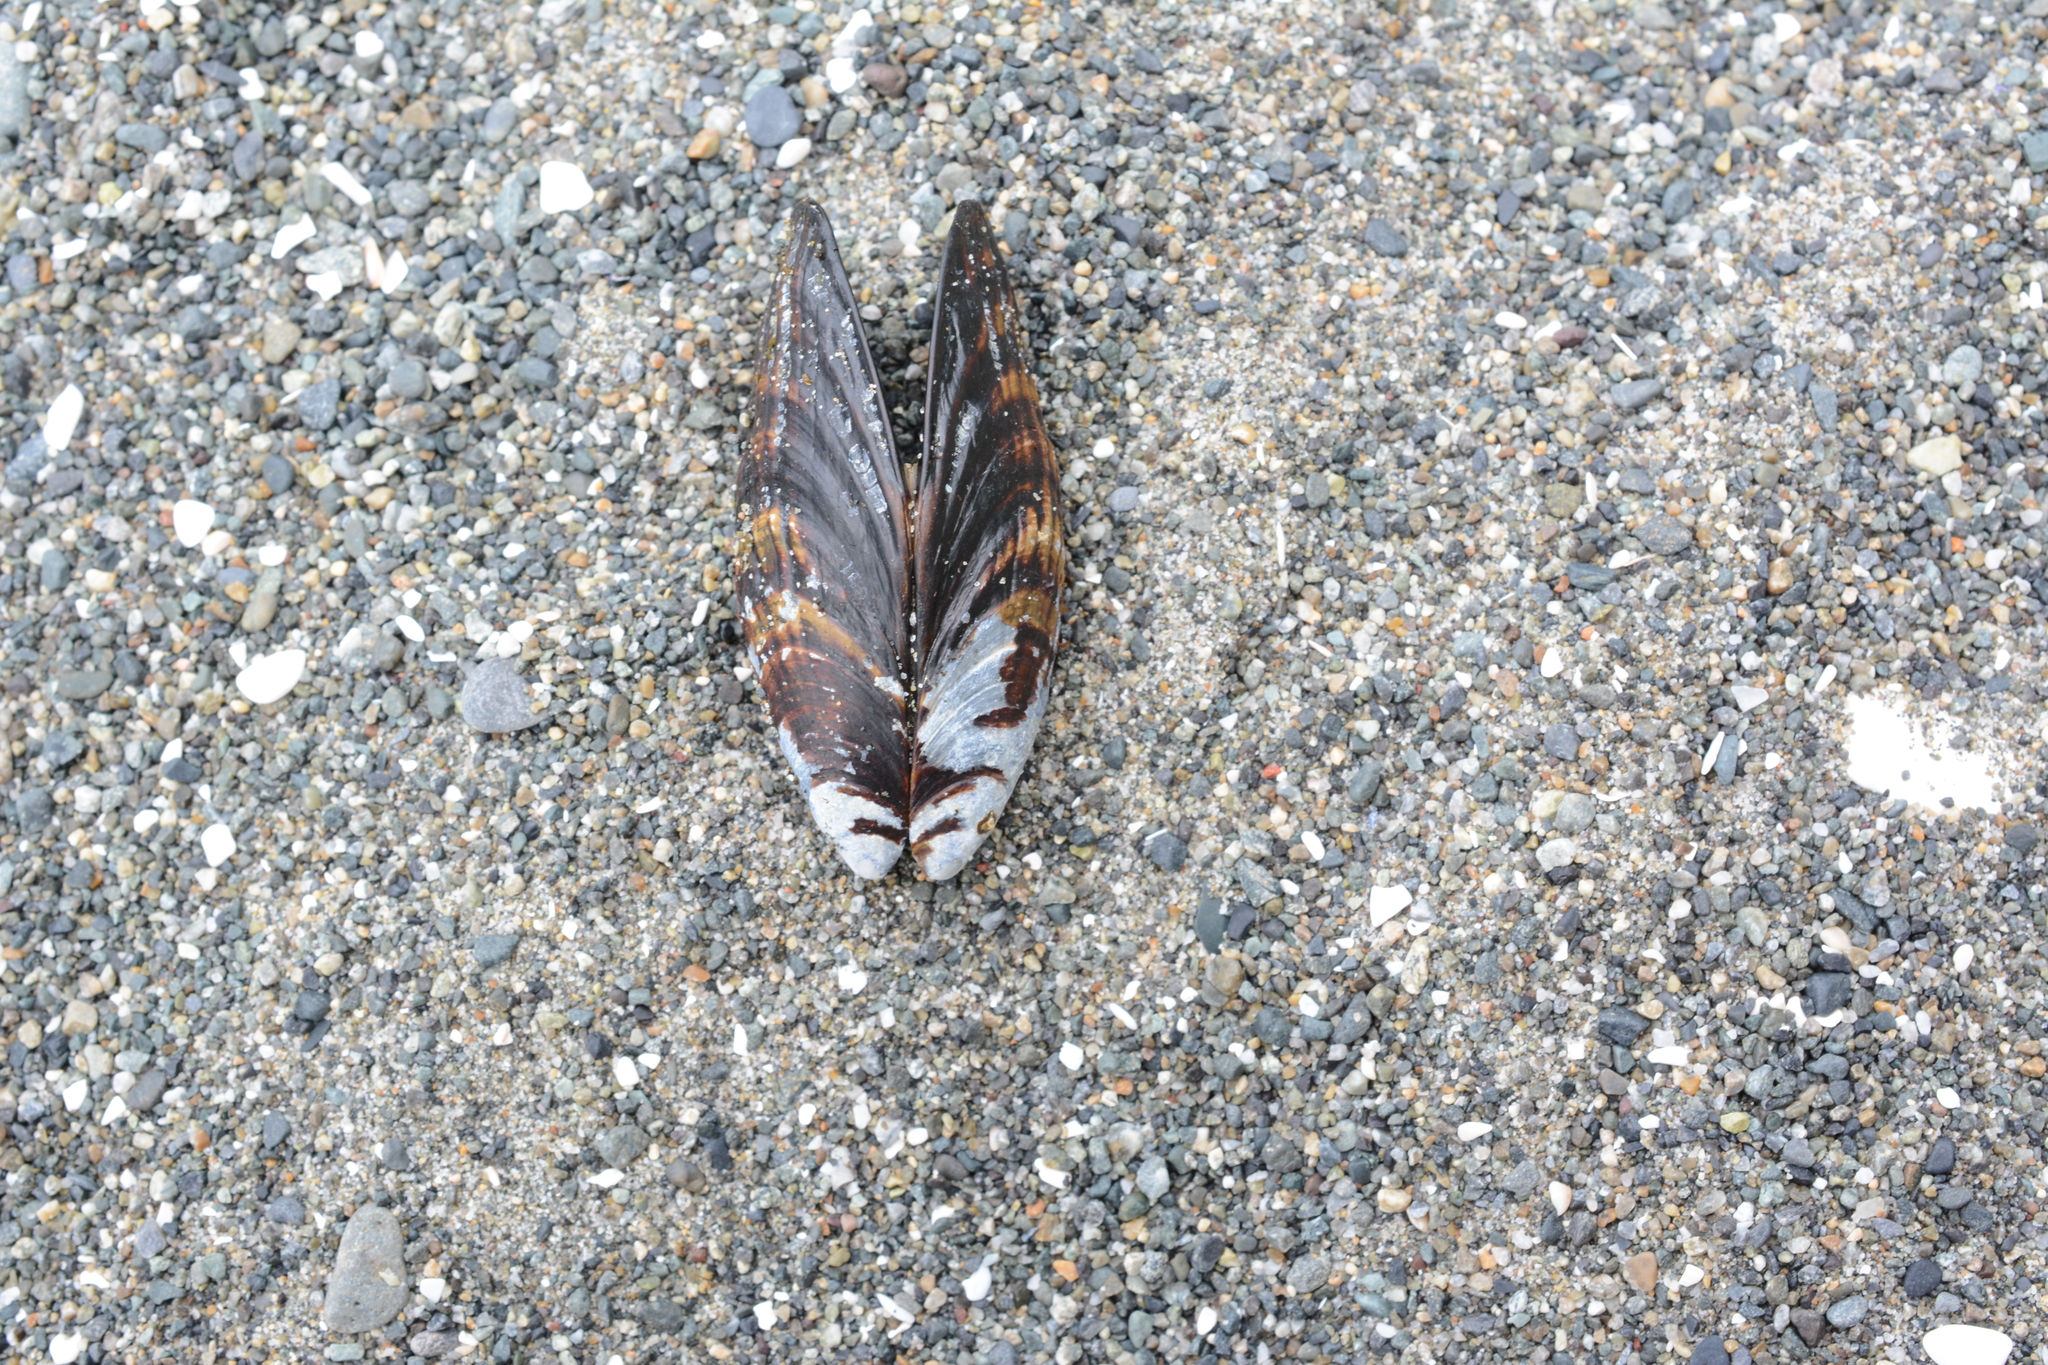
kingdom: Animalia
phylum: Mollusca
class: Bivalvia
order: Mytilida
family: Mytilidae
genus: Mytilus
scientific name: Mytilus californianus
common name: California mussel
